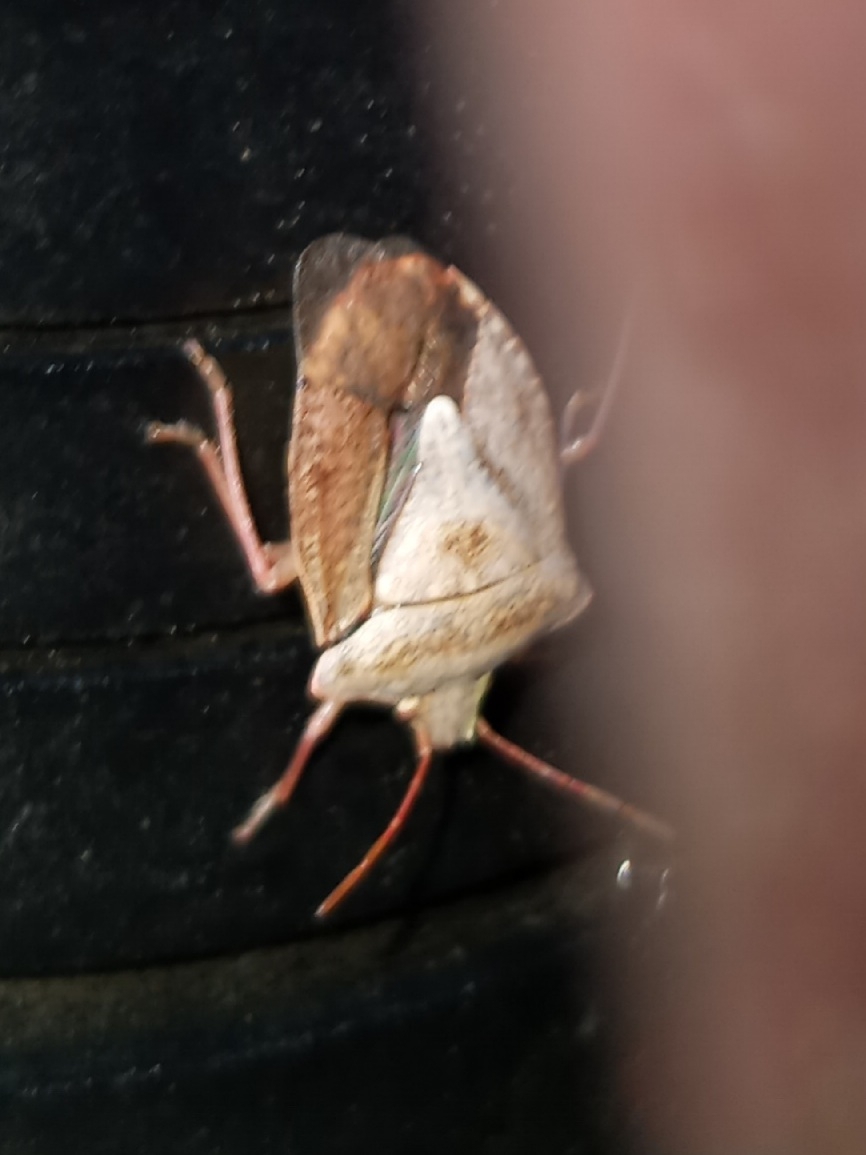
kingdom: Animalia
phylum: Arthropoda
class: Insecta
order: Hemiptera
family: Pentatomidae
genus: Euschistus
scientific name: Euschistus servus
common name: Brown stink bug
